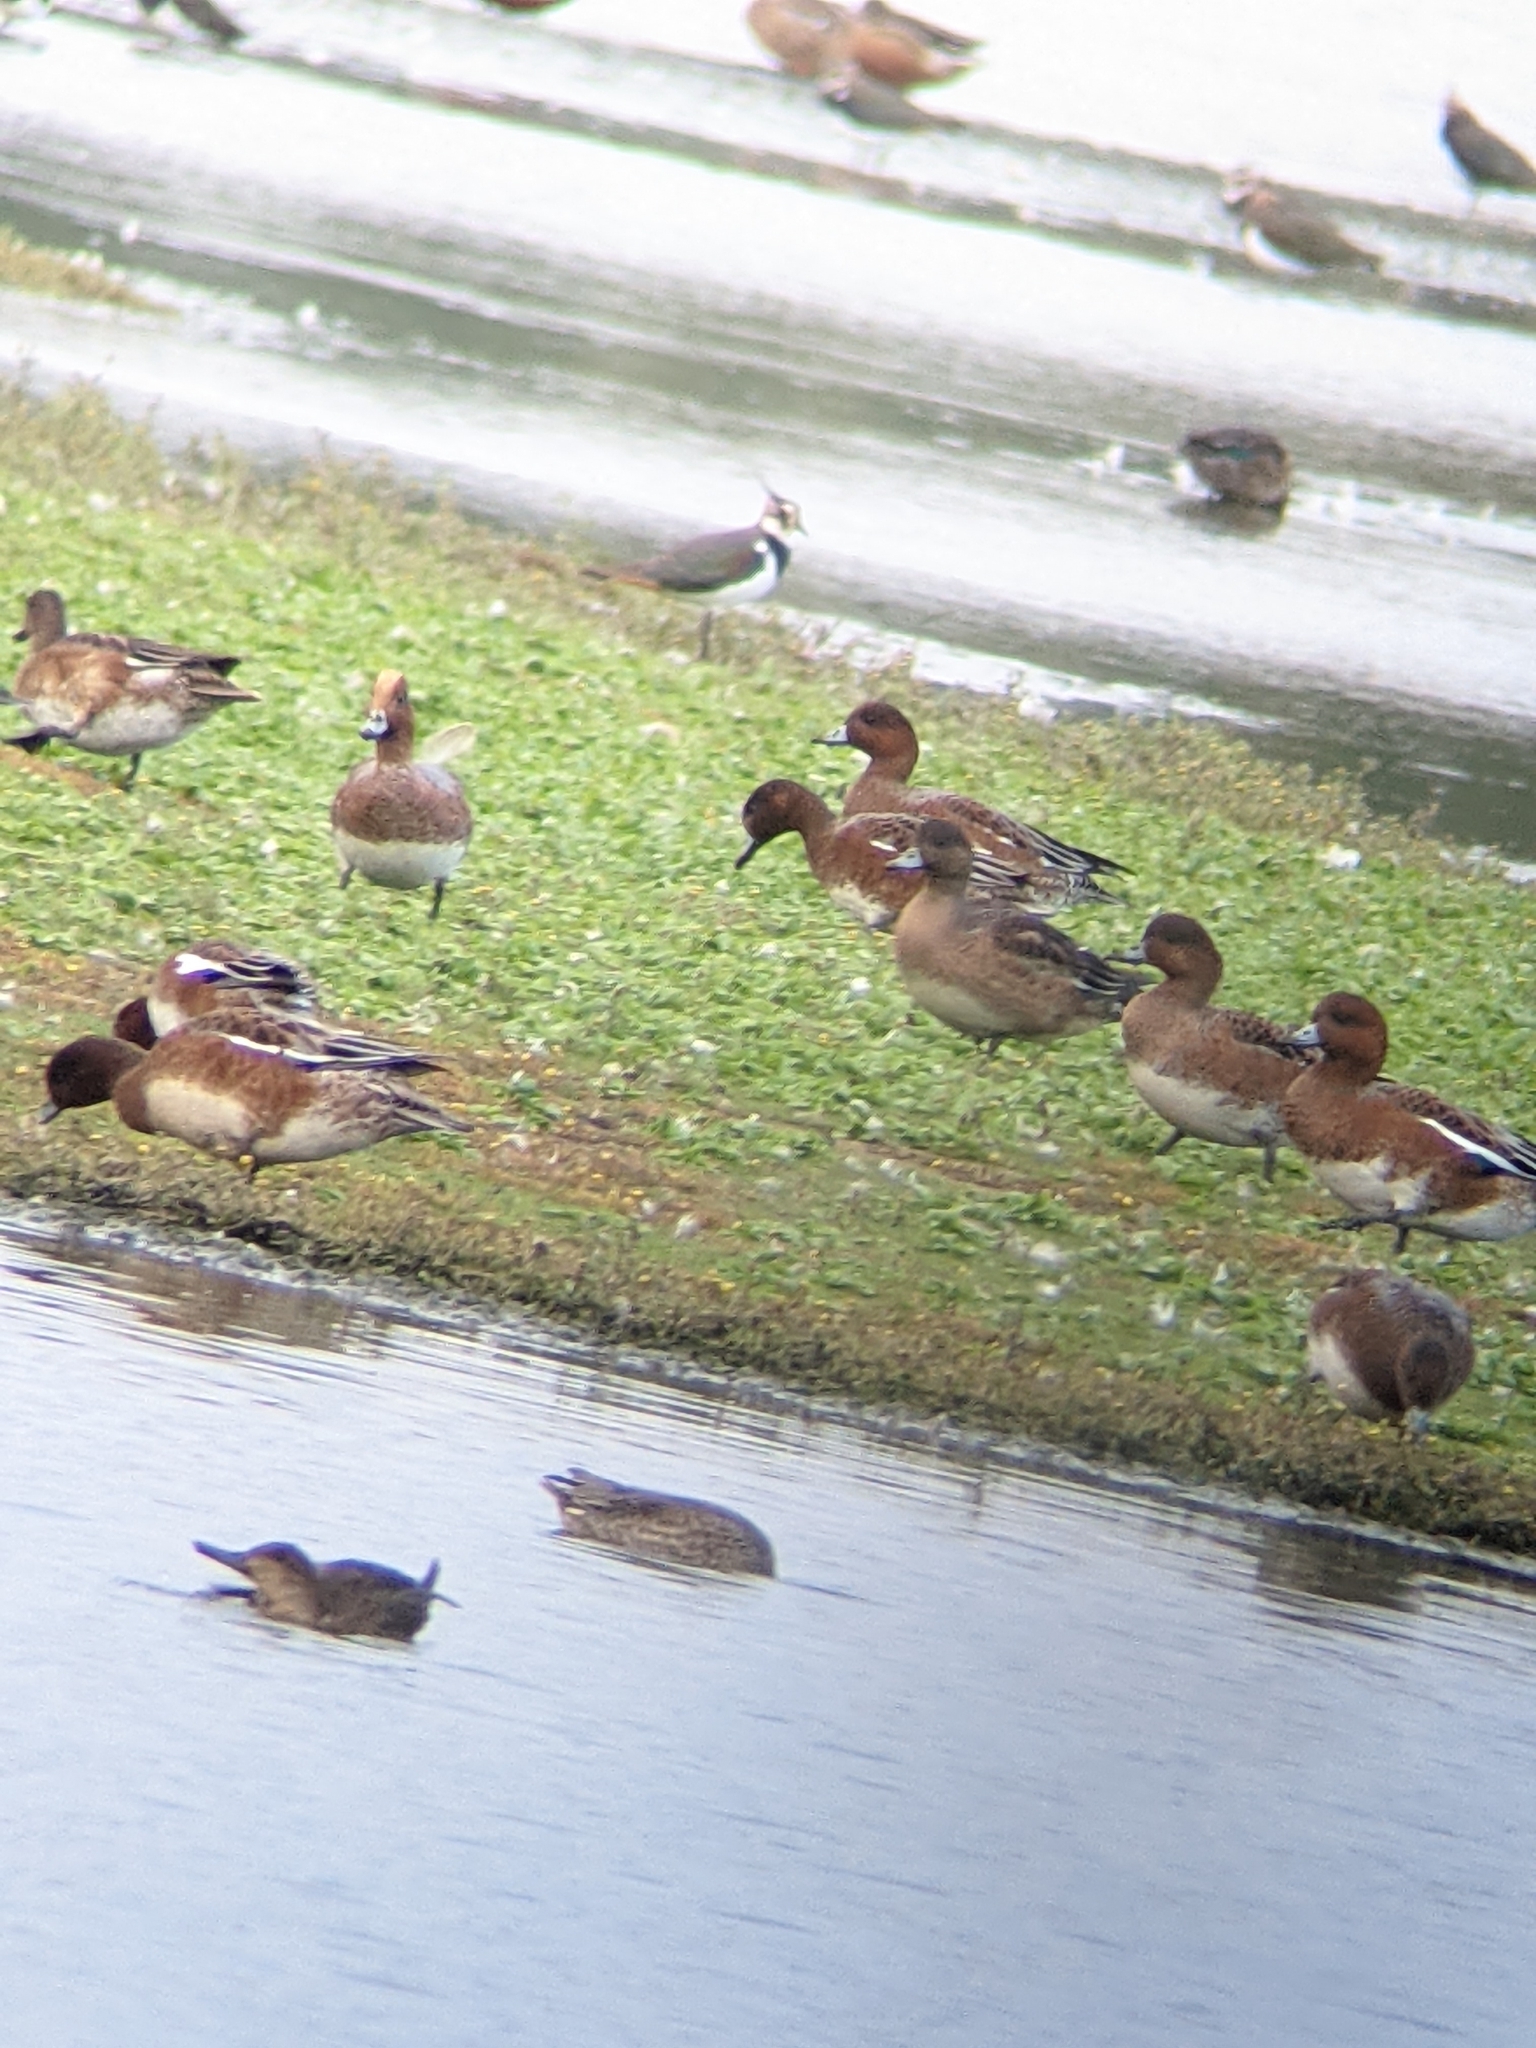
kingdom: Animalia
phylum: Chordata
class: Aves
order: Anseriformes
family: Anatidae
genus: Mareca
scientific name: Mareca penelope
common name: Eurasian wigeon
